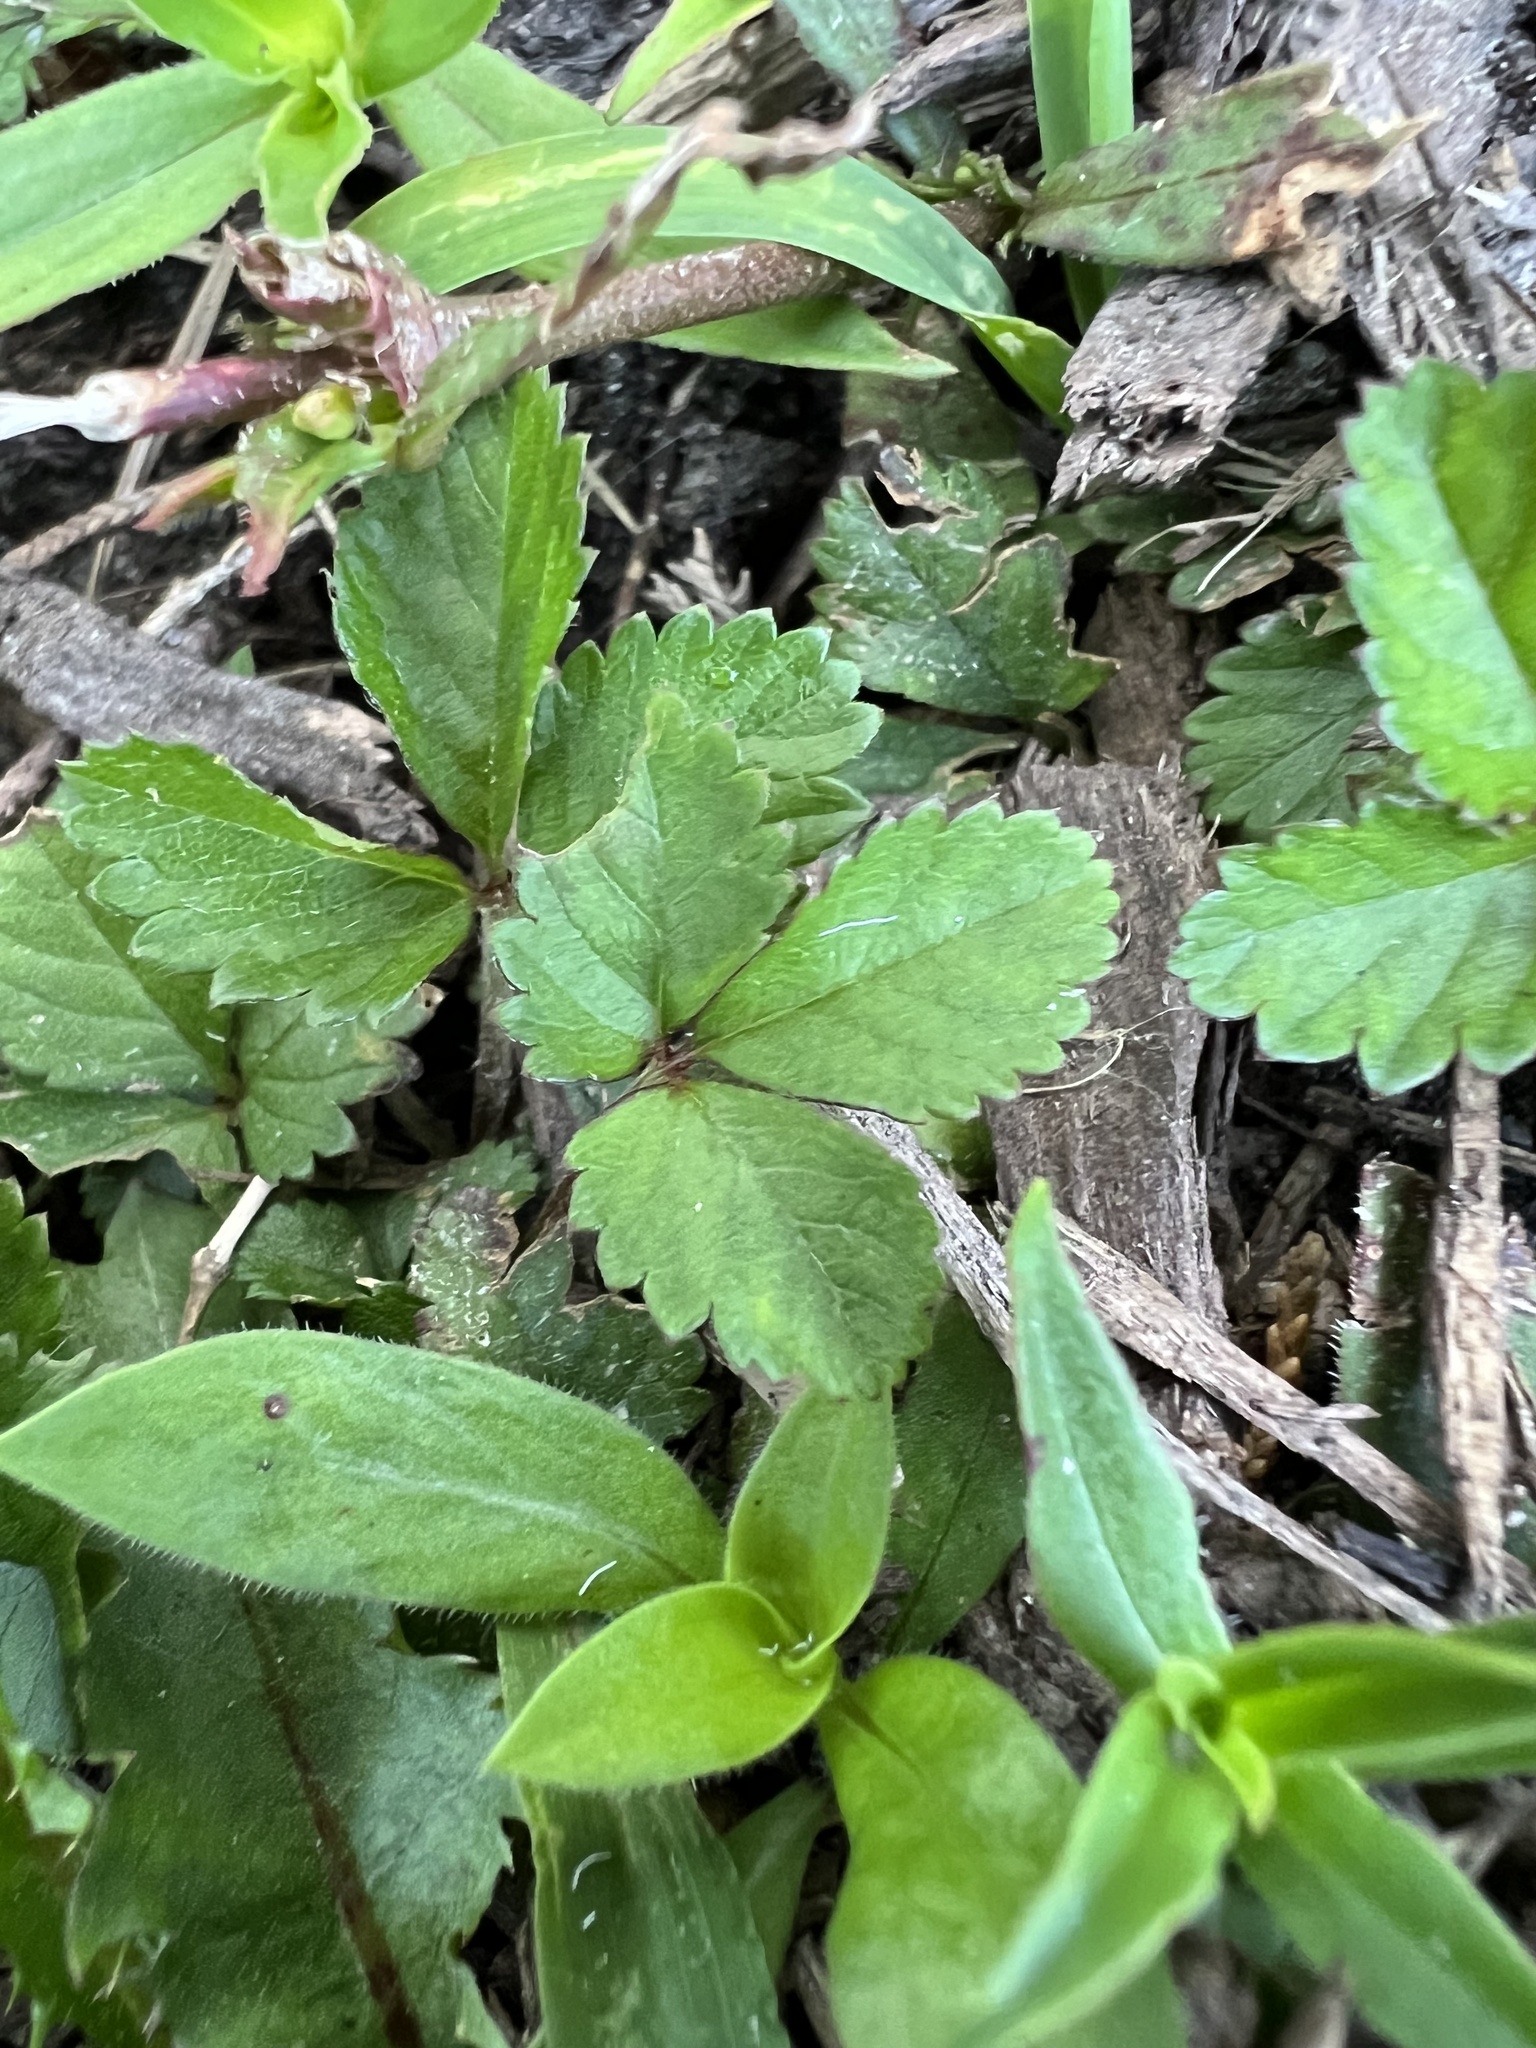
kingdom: Plantae
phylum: Tracheophyta
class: Magnoliopsida
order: Rosales
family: Rosaceae
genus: Potentilla
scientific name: Potentilla indica
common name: Yellow-flowered strawberry
